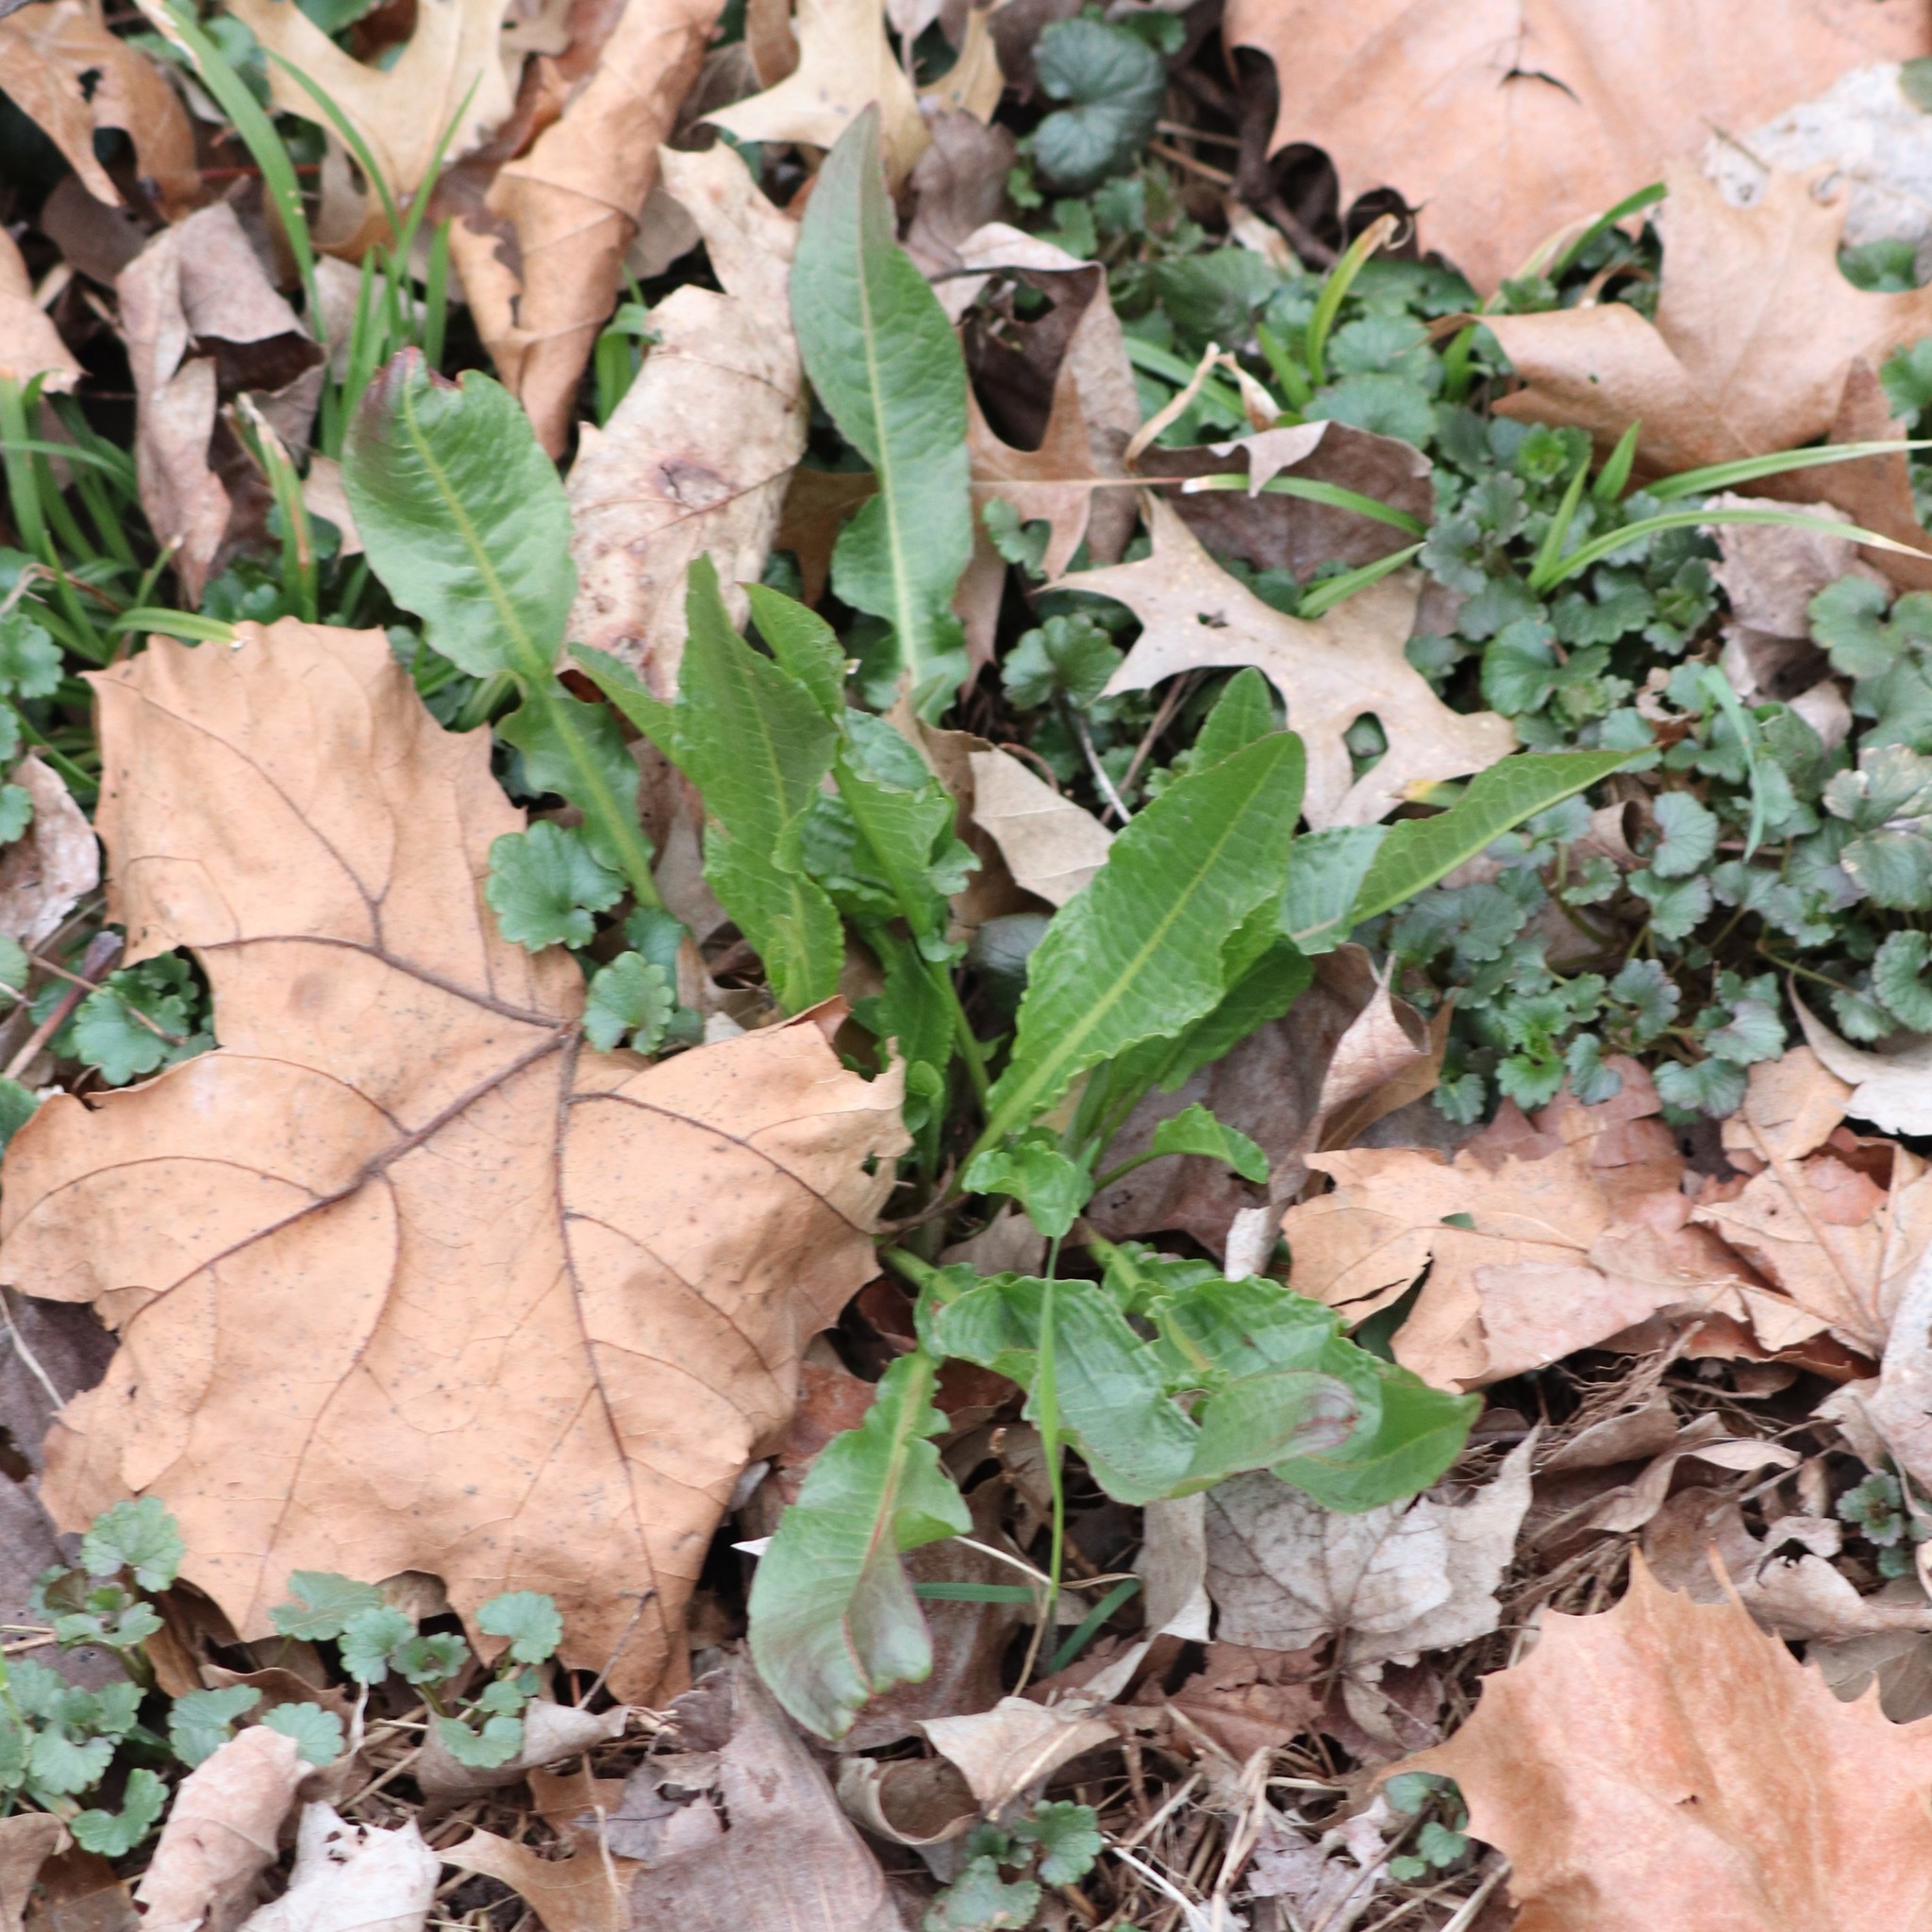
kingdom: Plantae
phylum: Tracheophyta
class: Magnoliopsida
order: Caryophyllales
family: Polygonaceae
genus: Rumex
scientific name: Rumex crispus
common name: Curled dock
